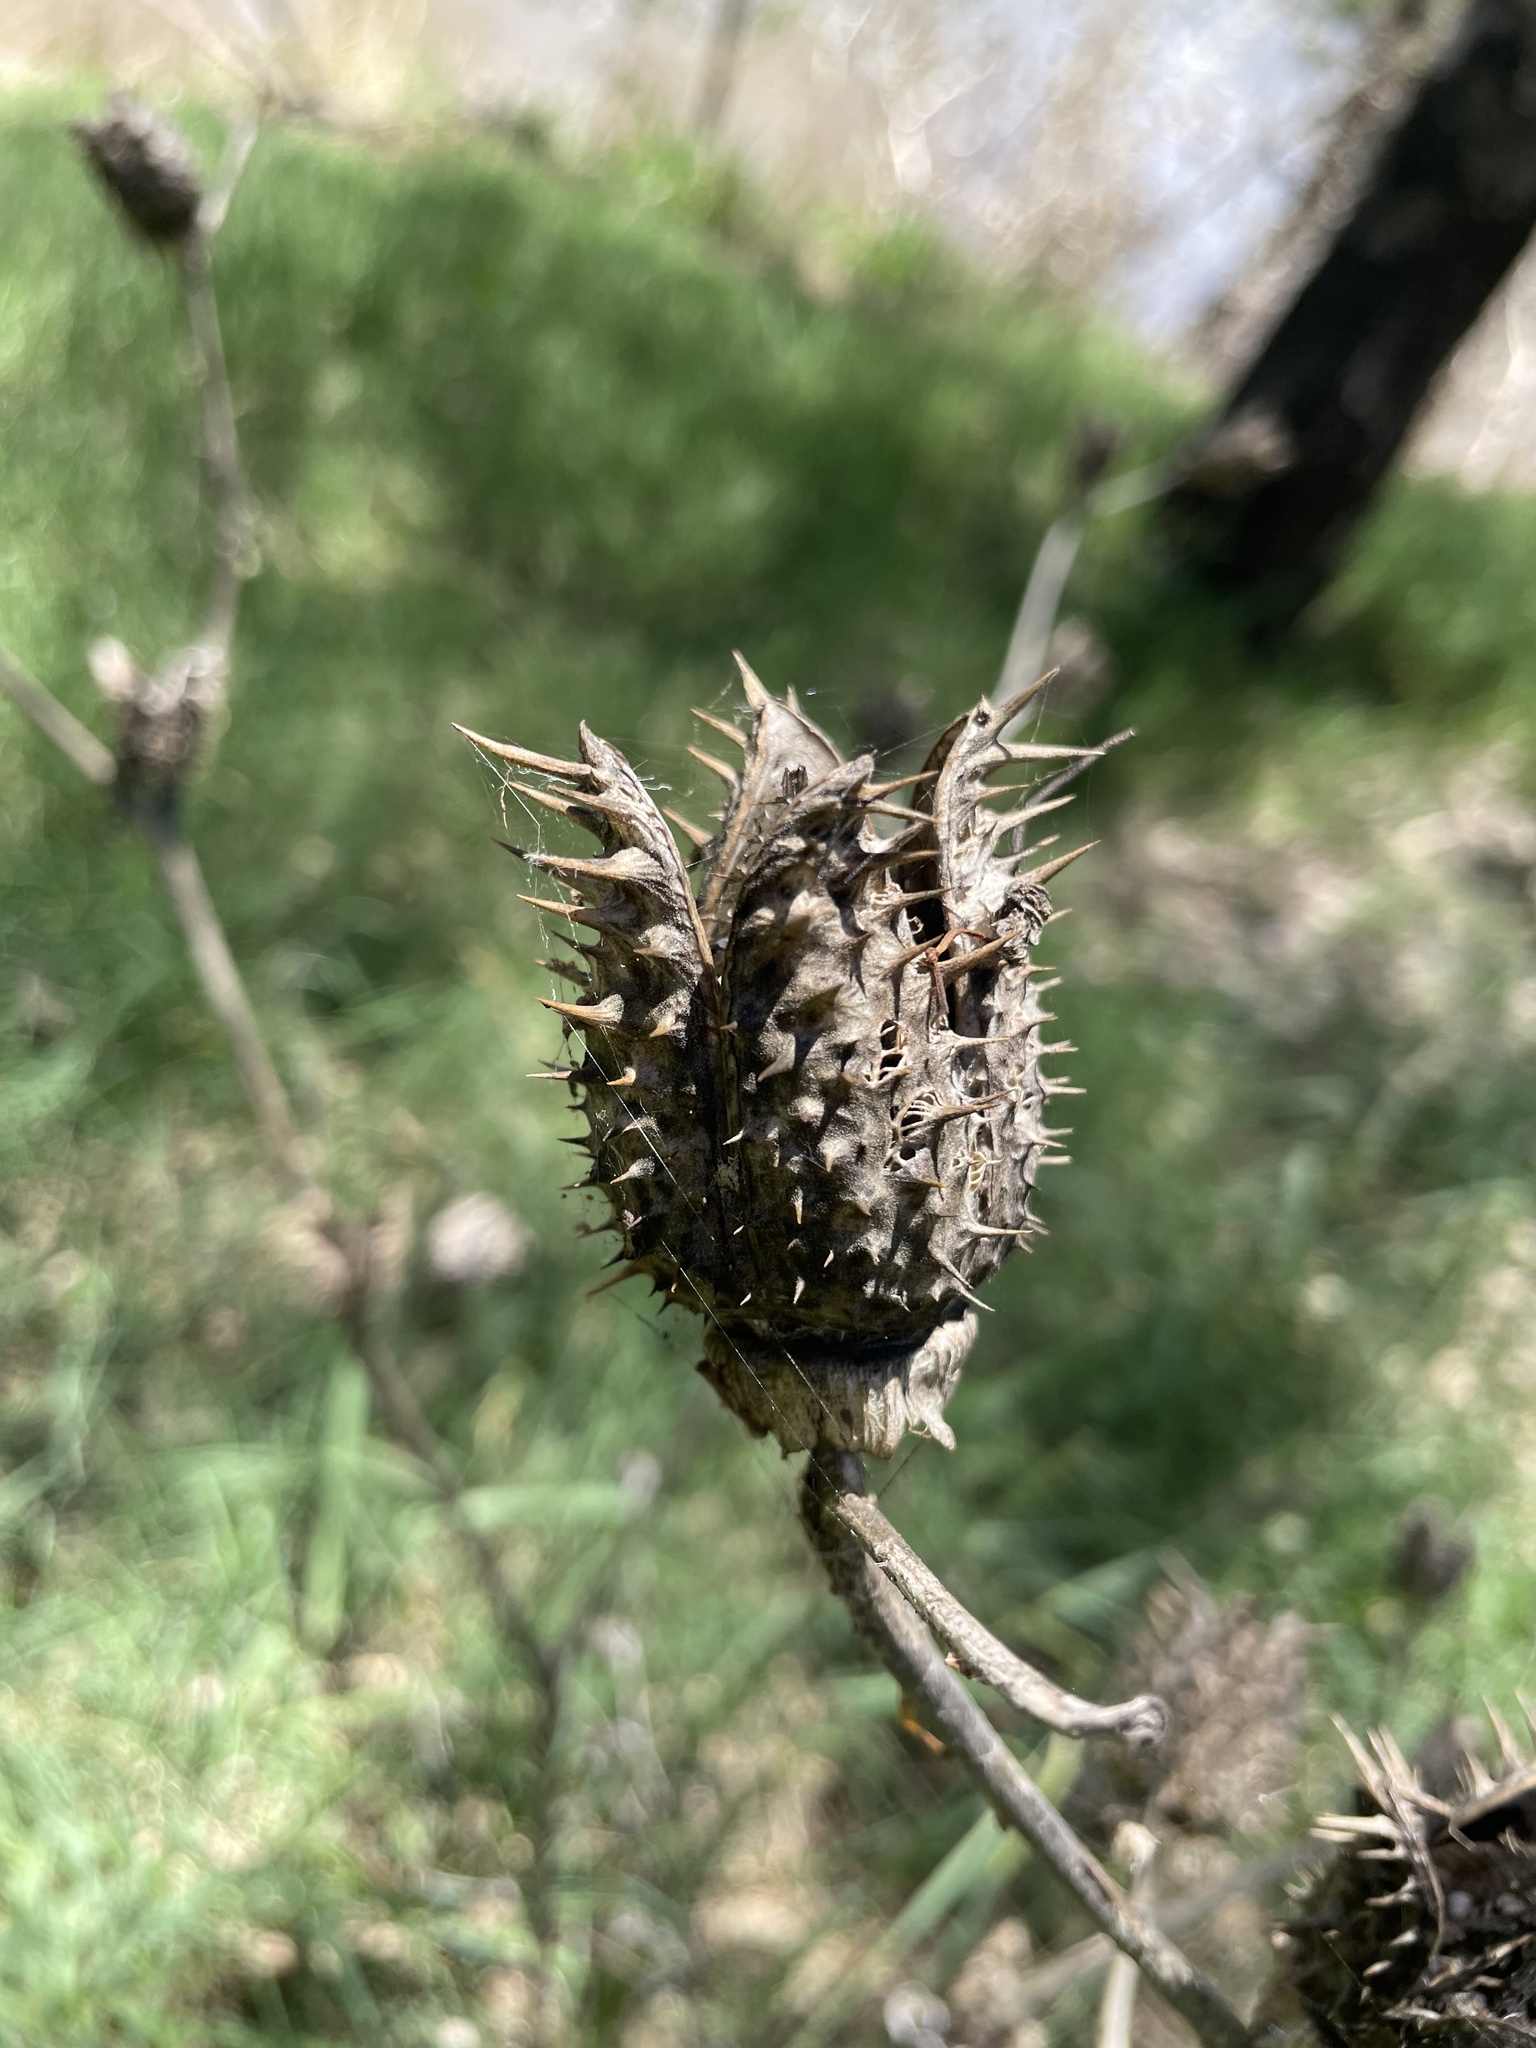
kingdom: Plantae
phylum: Tracheophyta
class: Magnoliopsida
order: Solanales
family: Solanaceae
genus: Datura
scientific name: Datura stramonium
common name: Thorn-apple
